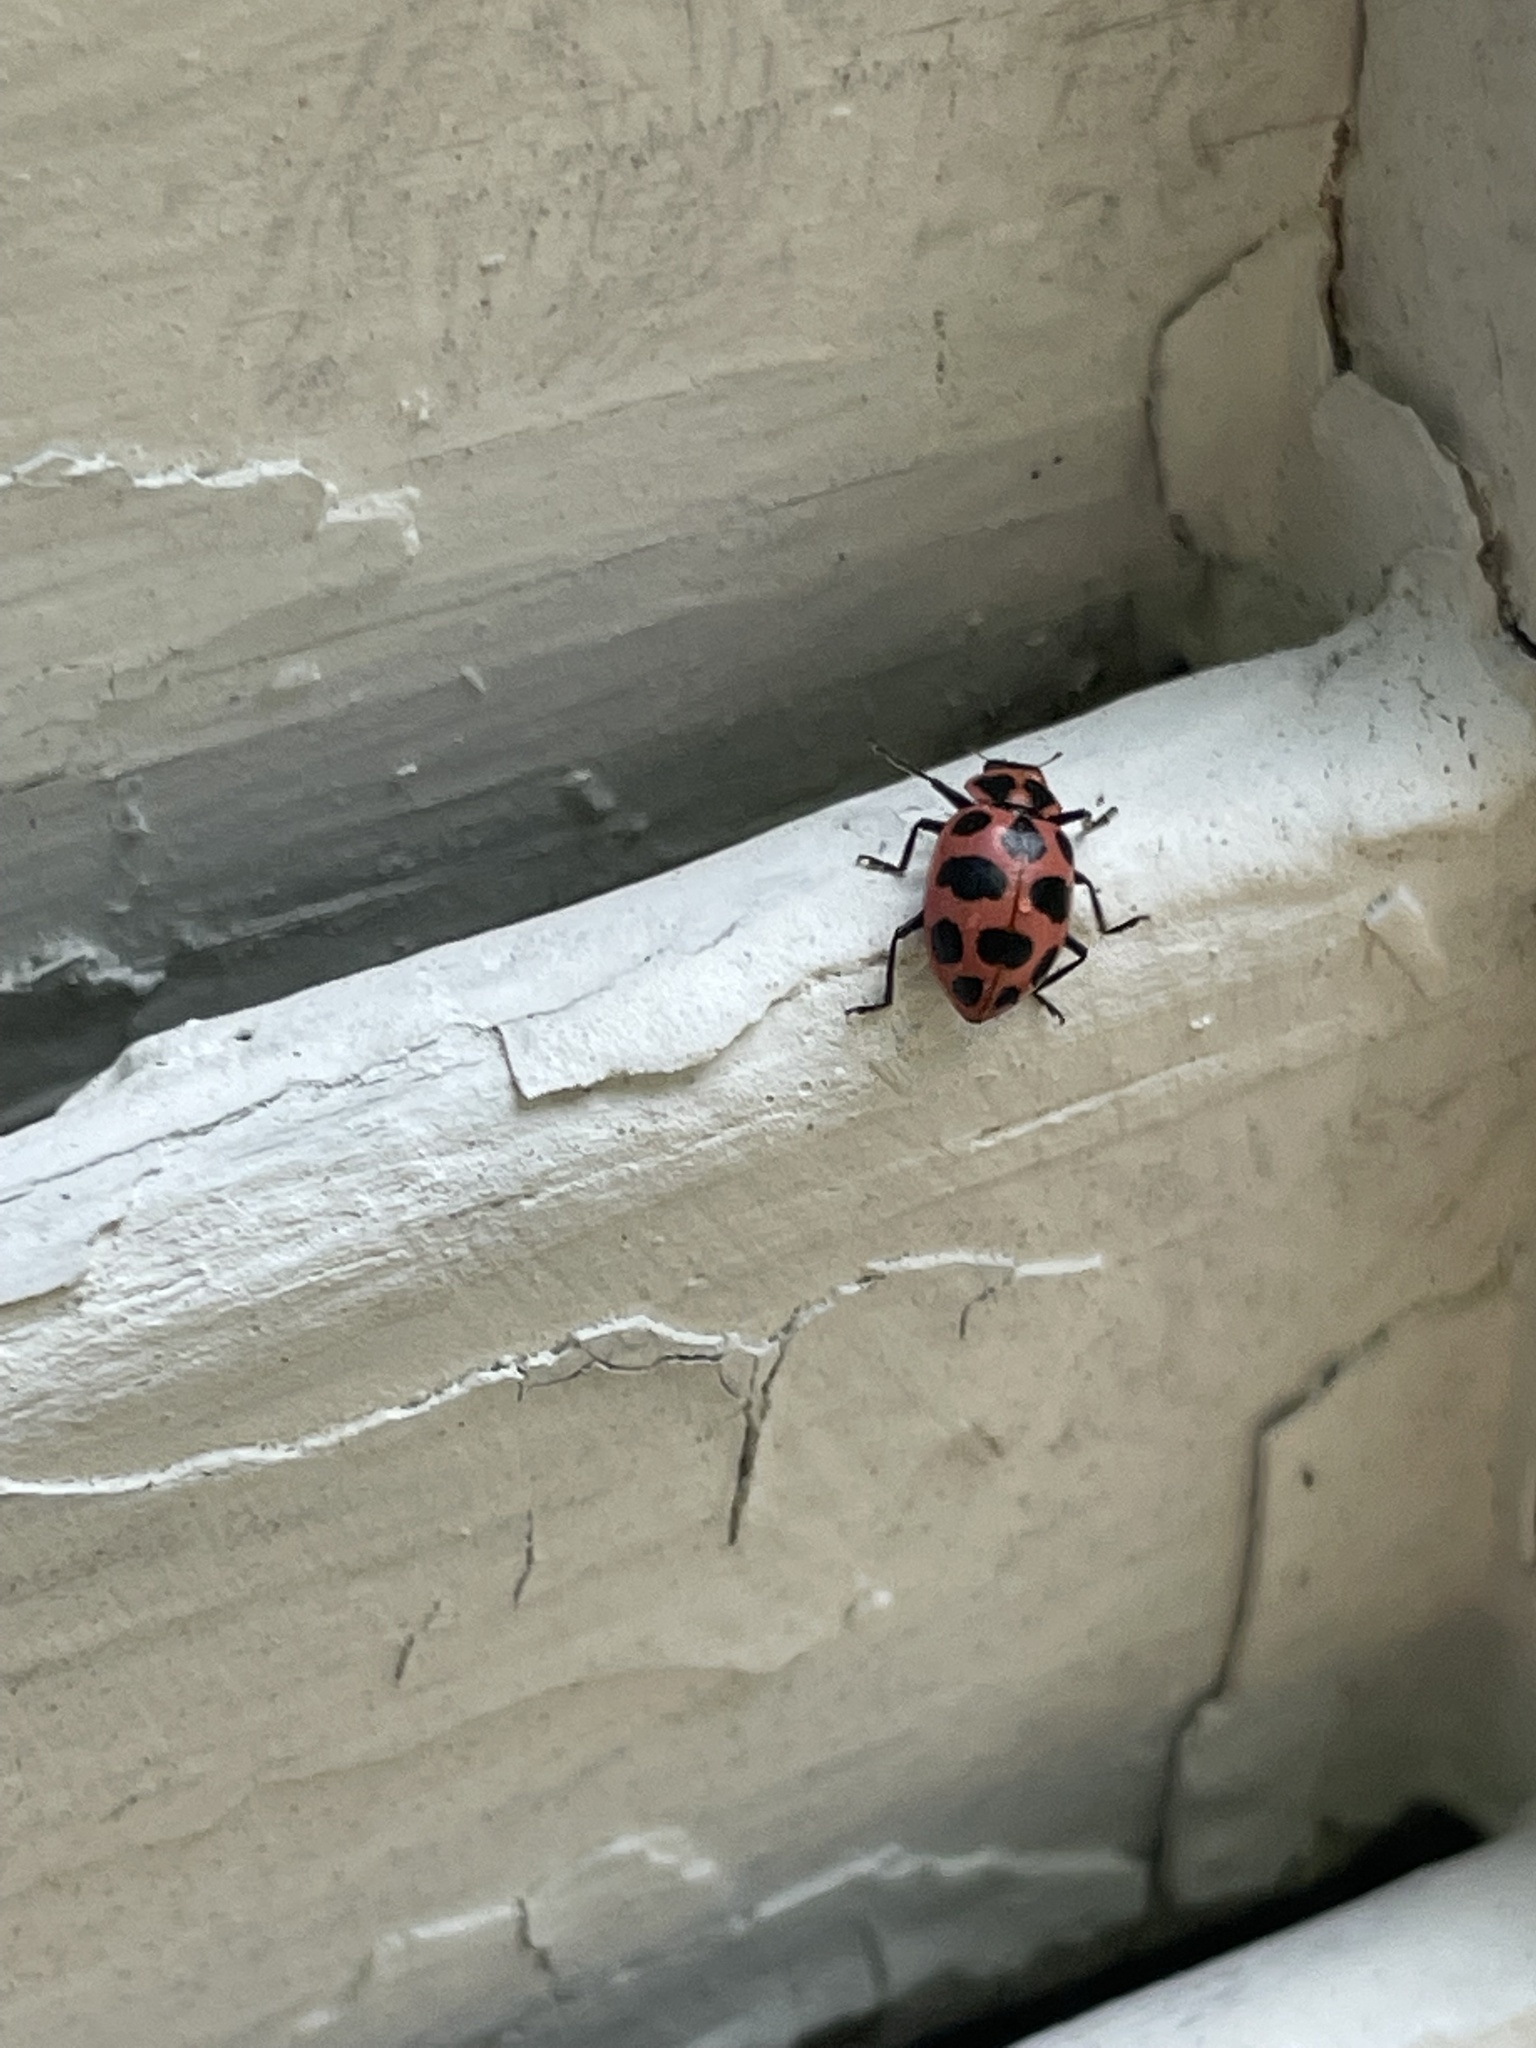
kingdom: Animalia
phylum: Arthropoda
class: Insecta
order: Coleoptera
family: Coccinellidae
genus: Coleomegilla
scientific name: Coleomegilla maculata
